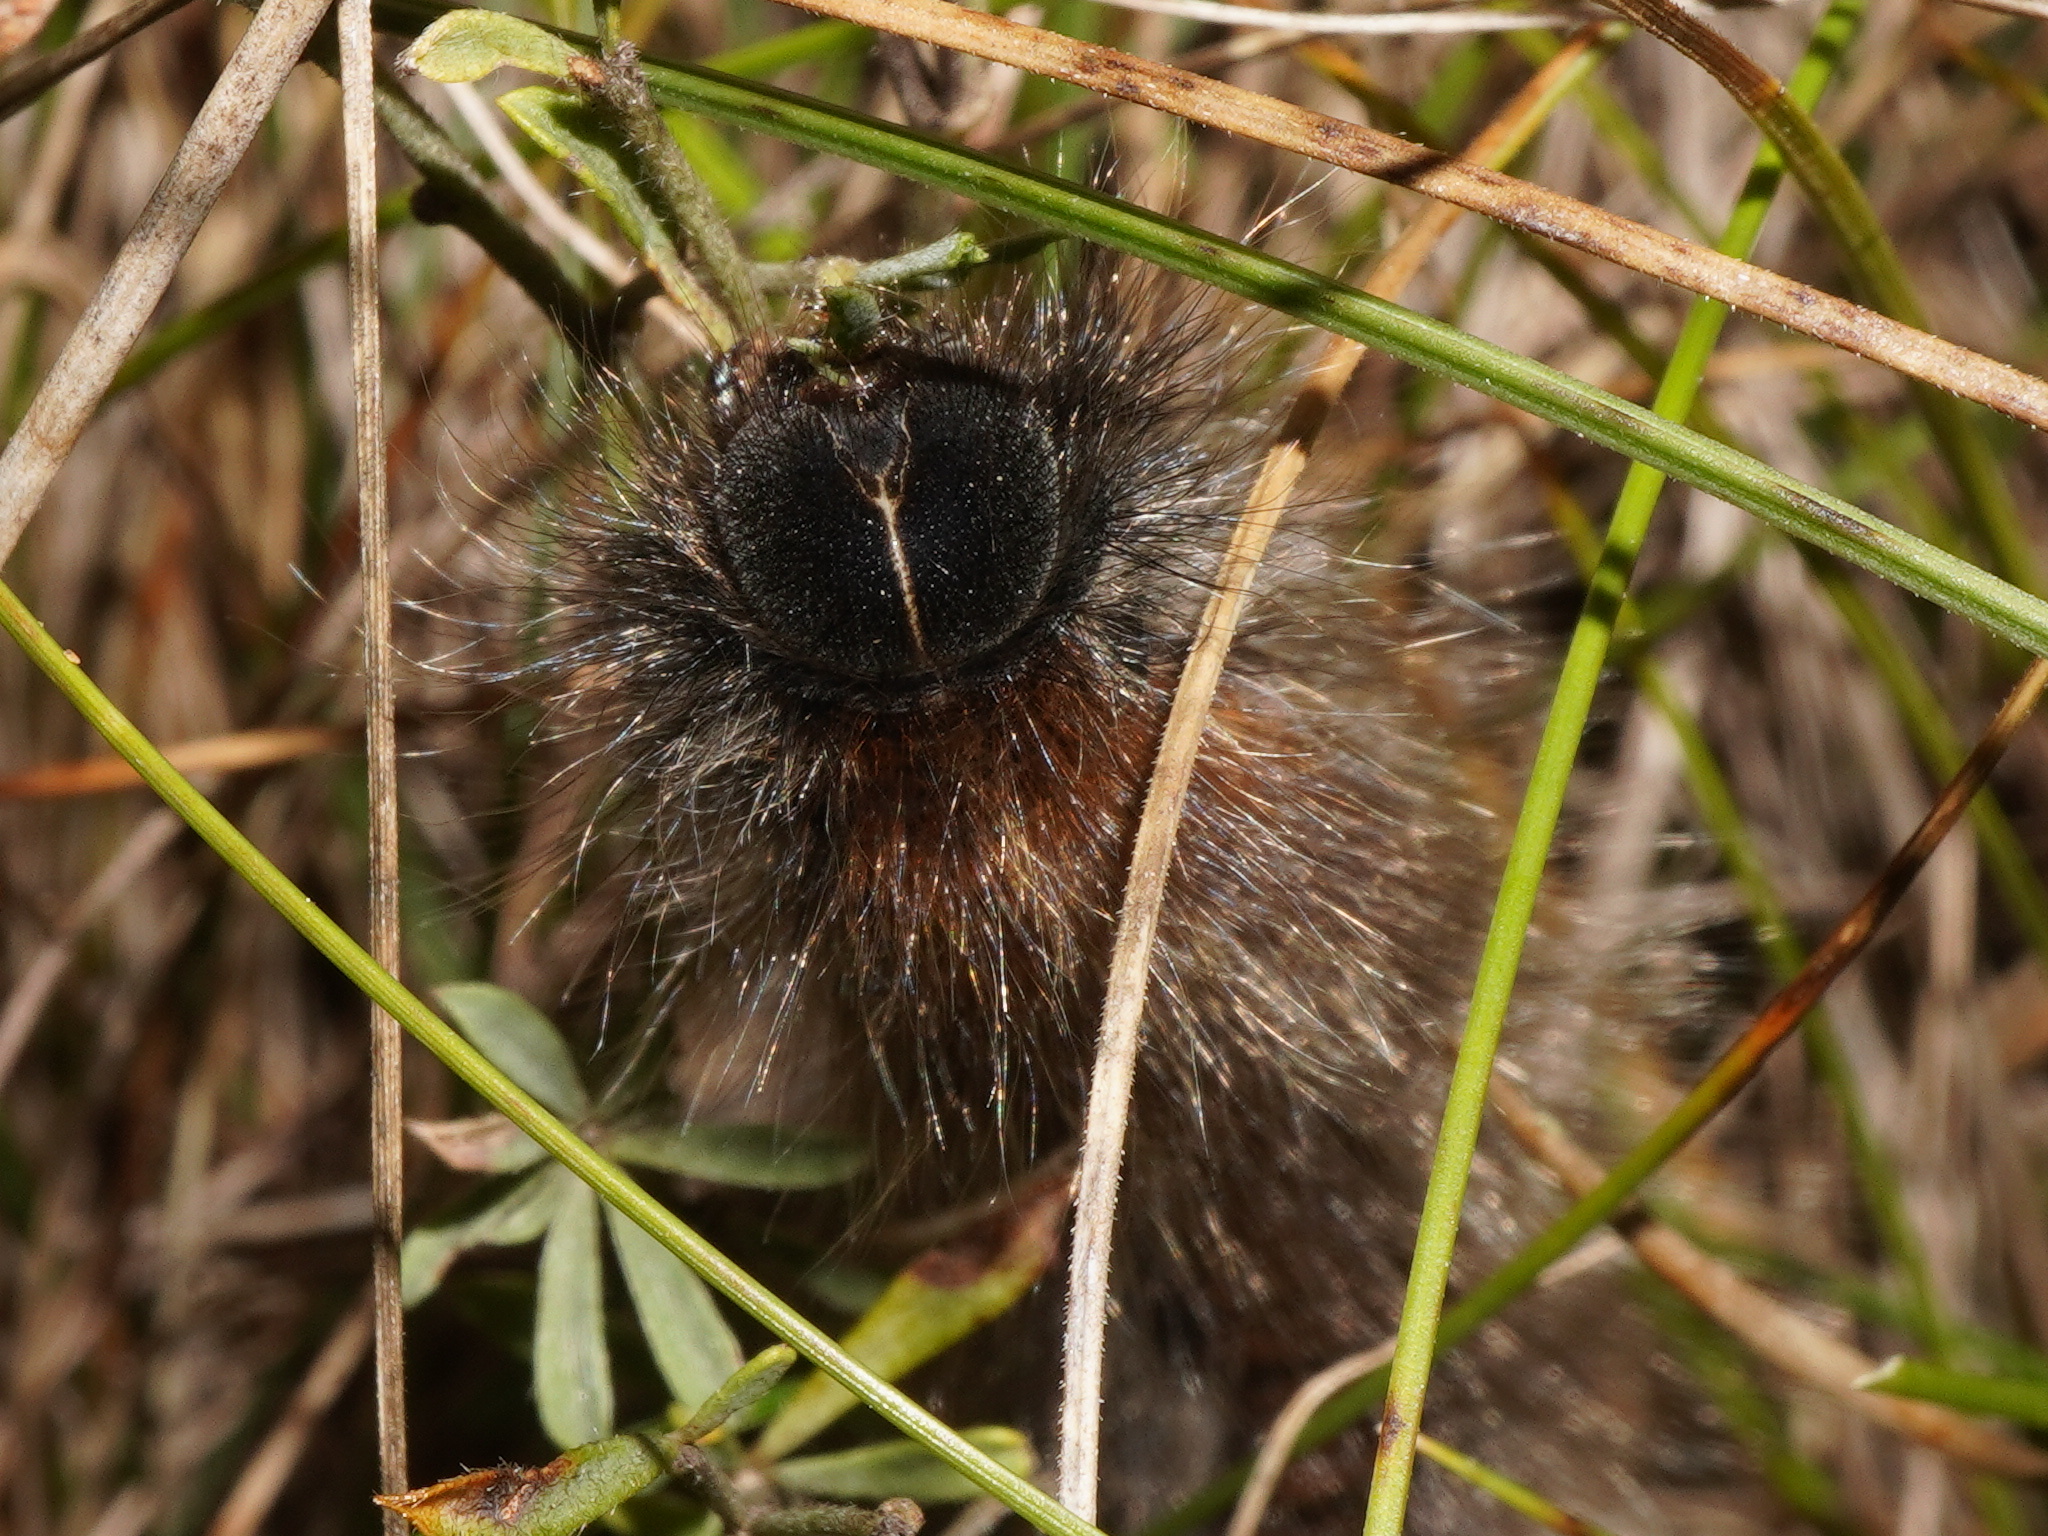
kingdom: Animalia
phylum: Arthropoda
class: Insecta
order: Lepidoptera
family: Lasiocampidae
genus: Macrothylacia
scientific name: Macrothylacia rubi
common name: Fox moth
